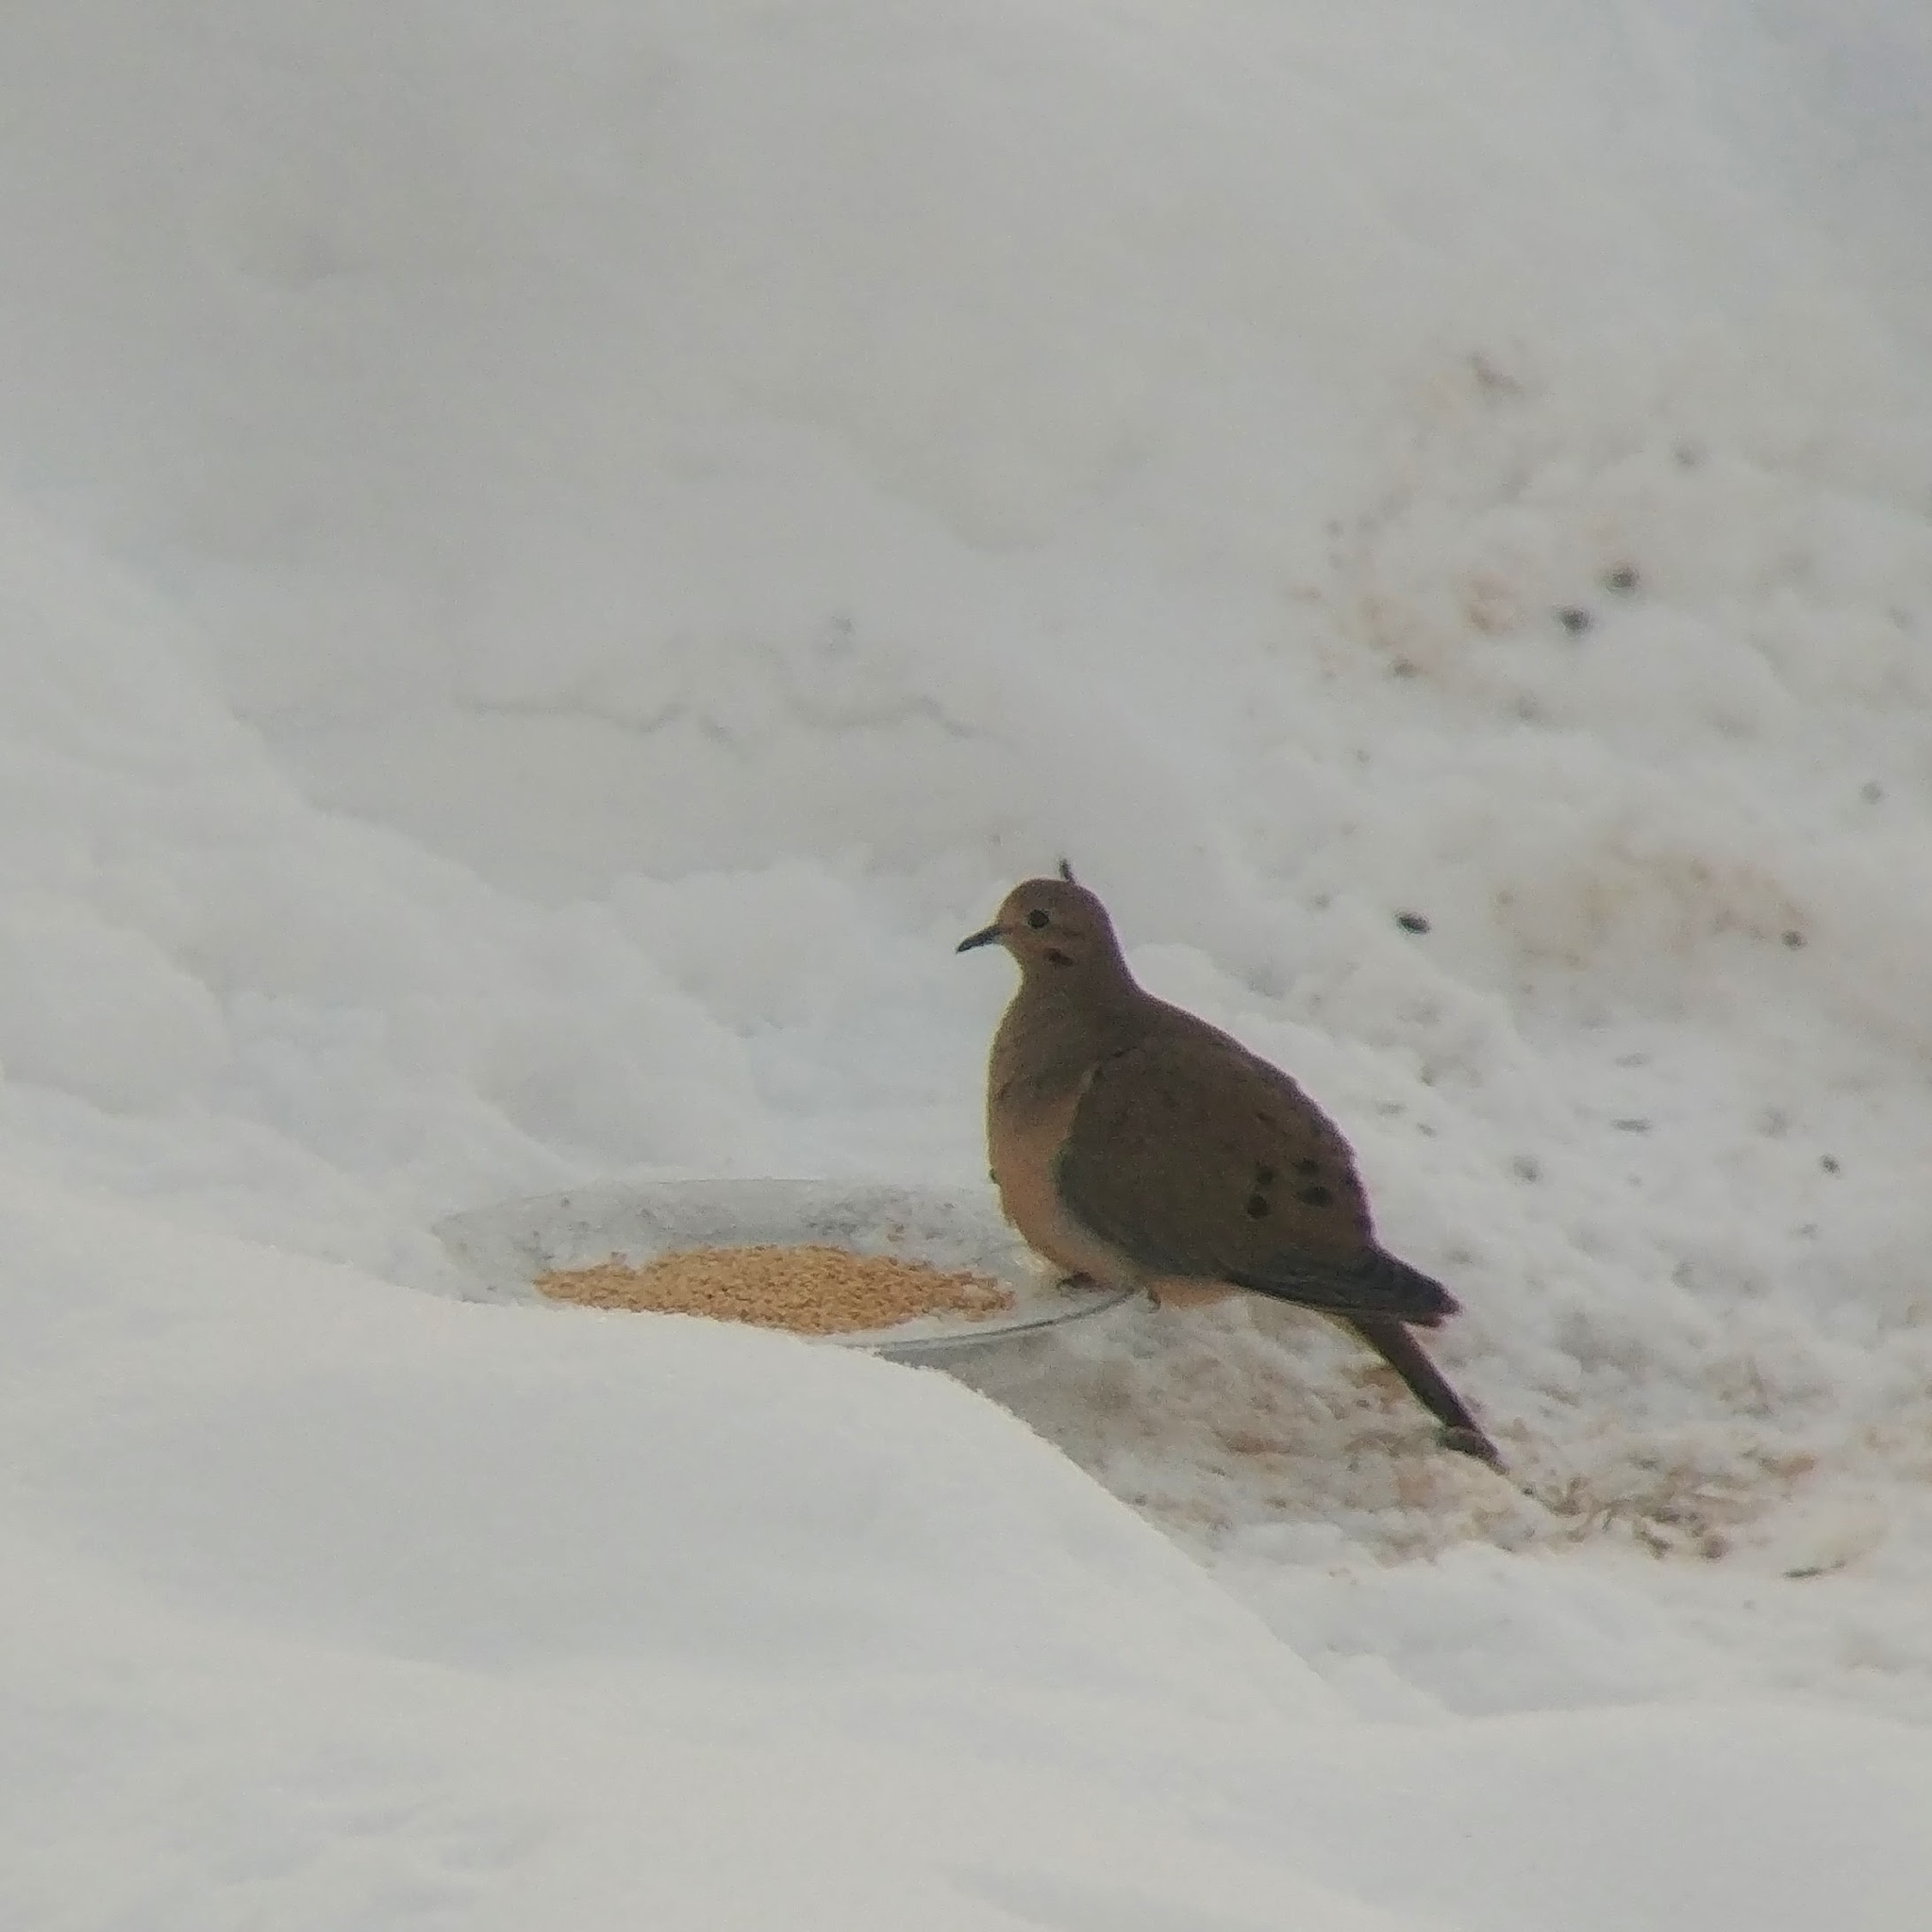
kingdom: Animalia
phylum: Chordata
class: Aves
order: Columbiformes
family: Columbidae
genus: Zenaida
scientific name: Zenaida macroura
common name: Mourning dove
